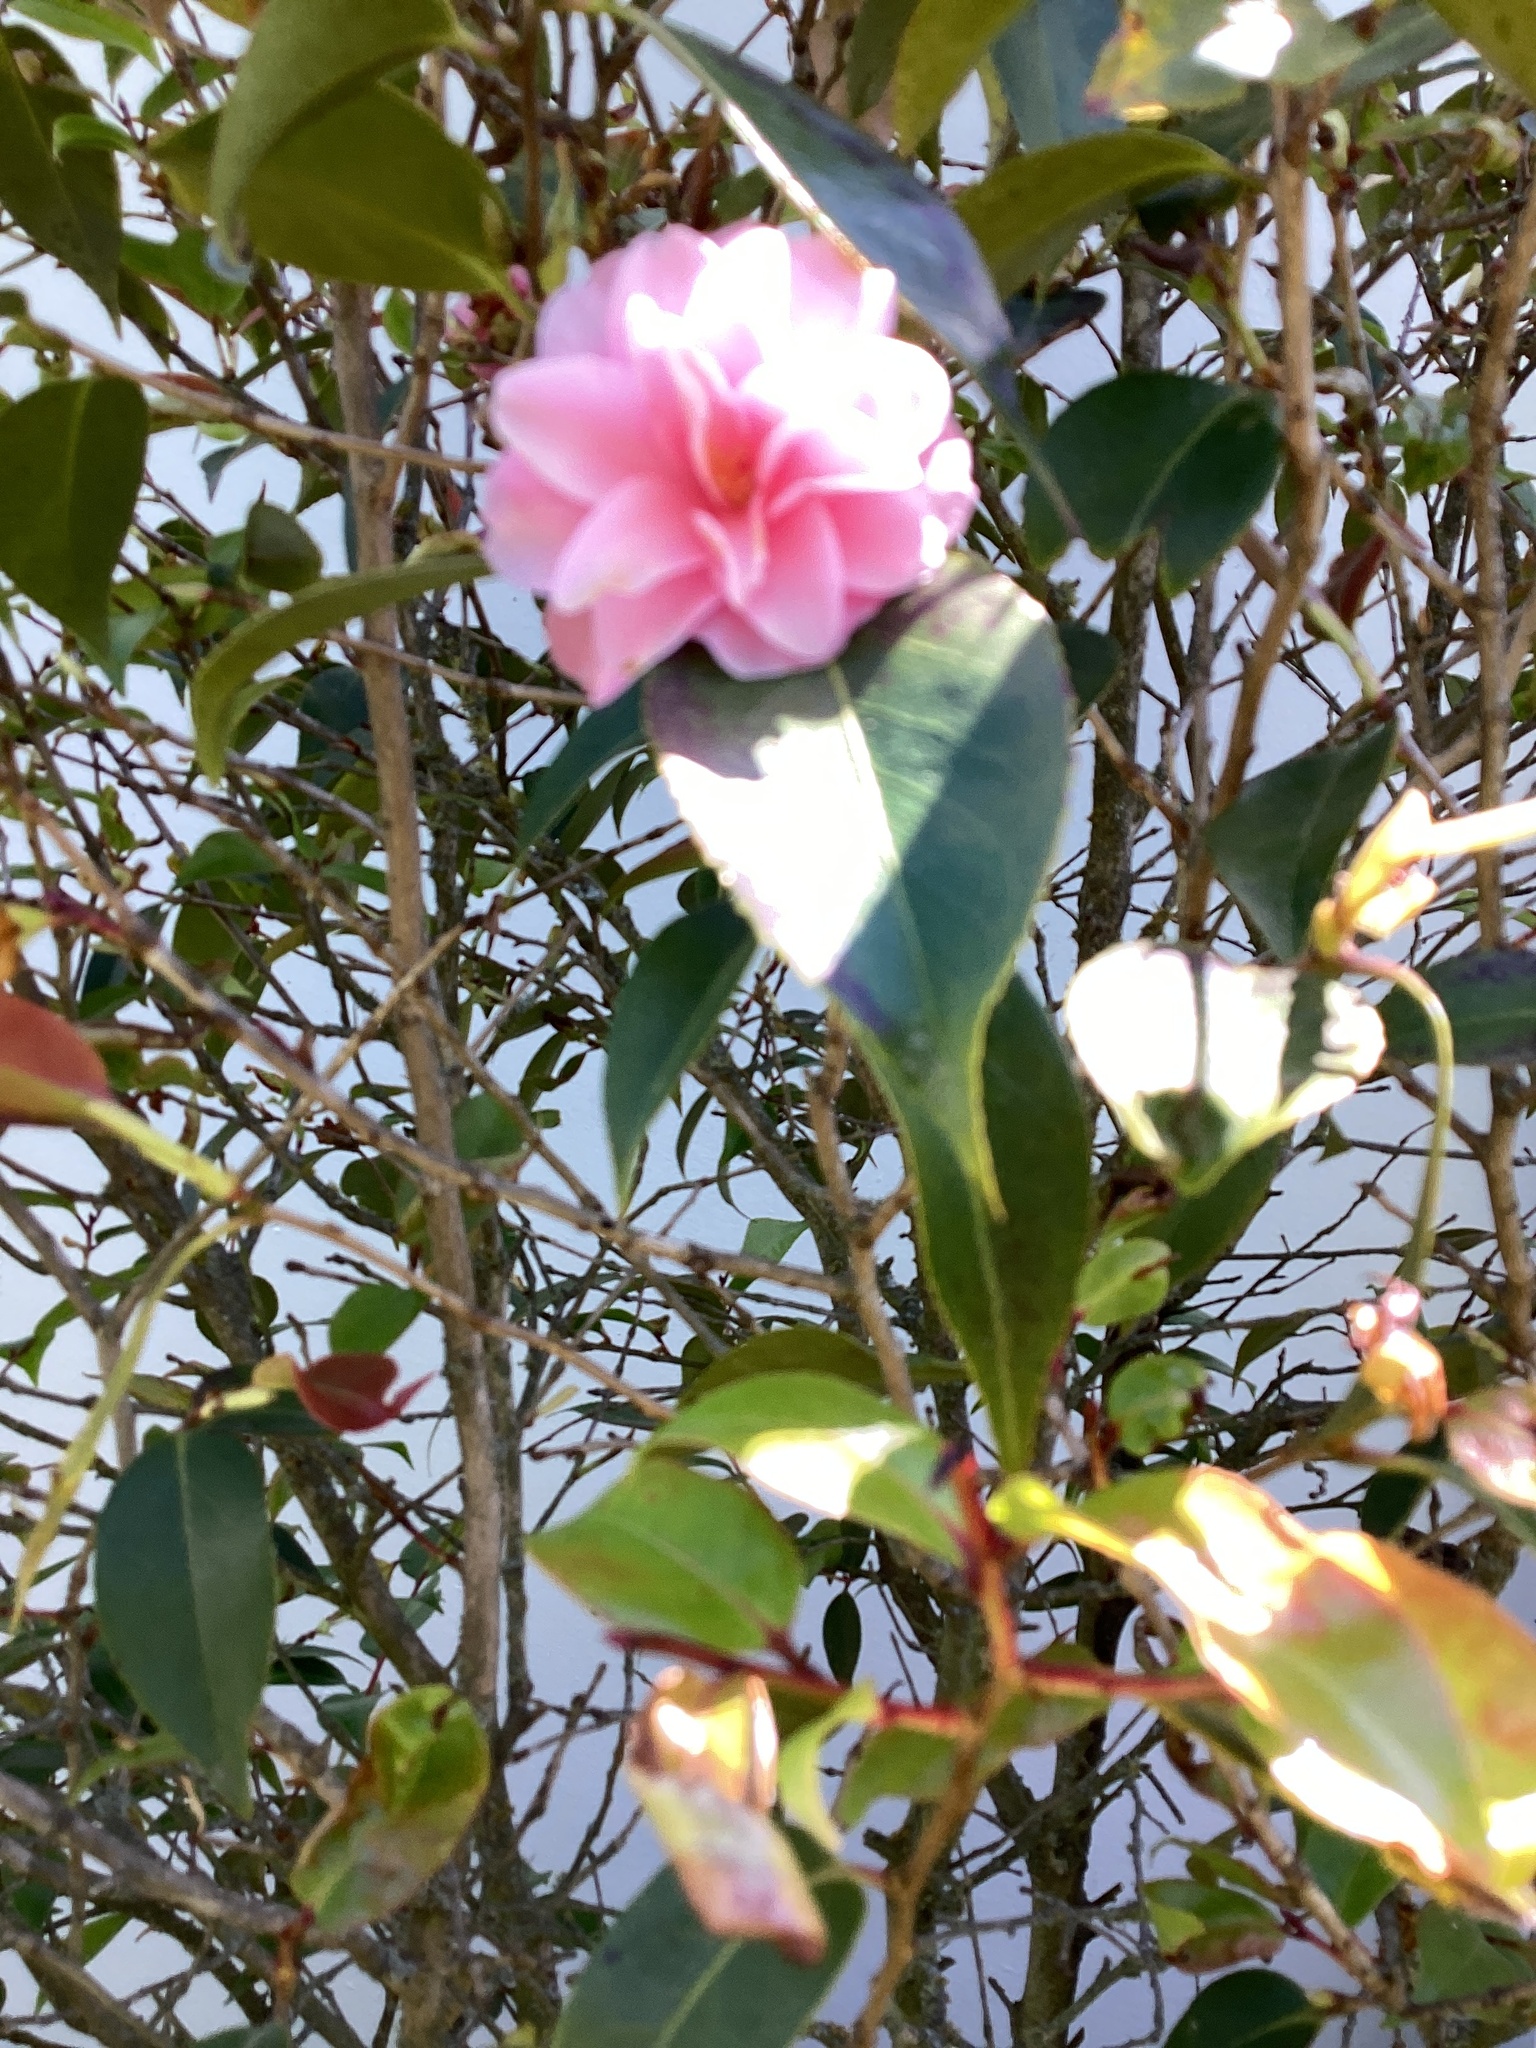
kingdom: Plantae
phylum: Tracheophyta
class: Magnoliopsida
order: Ericales
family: Theaceae
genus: Camellia
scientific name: Camellia japonica
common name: Camellia
